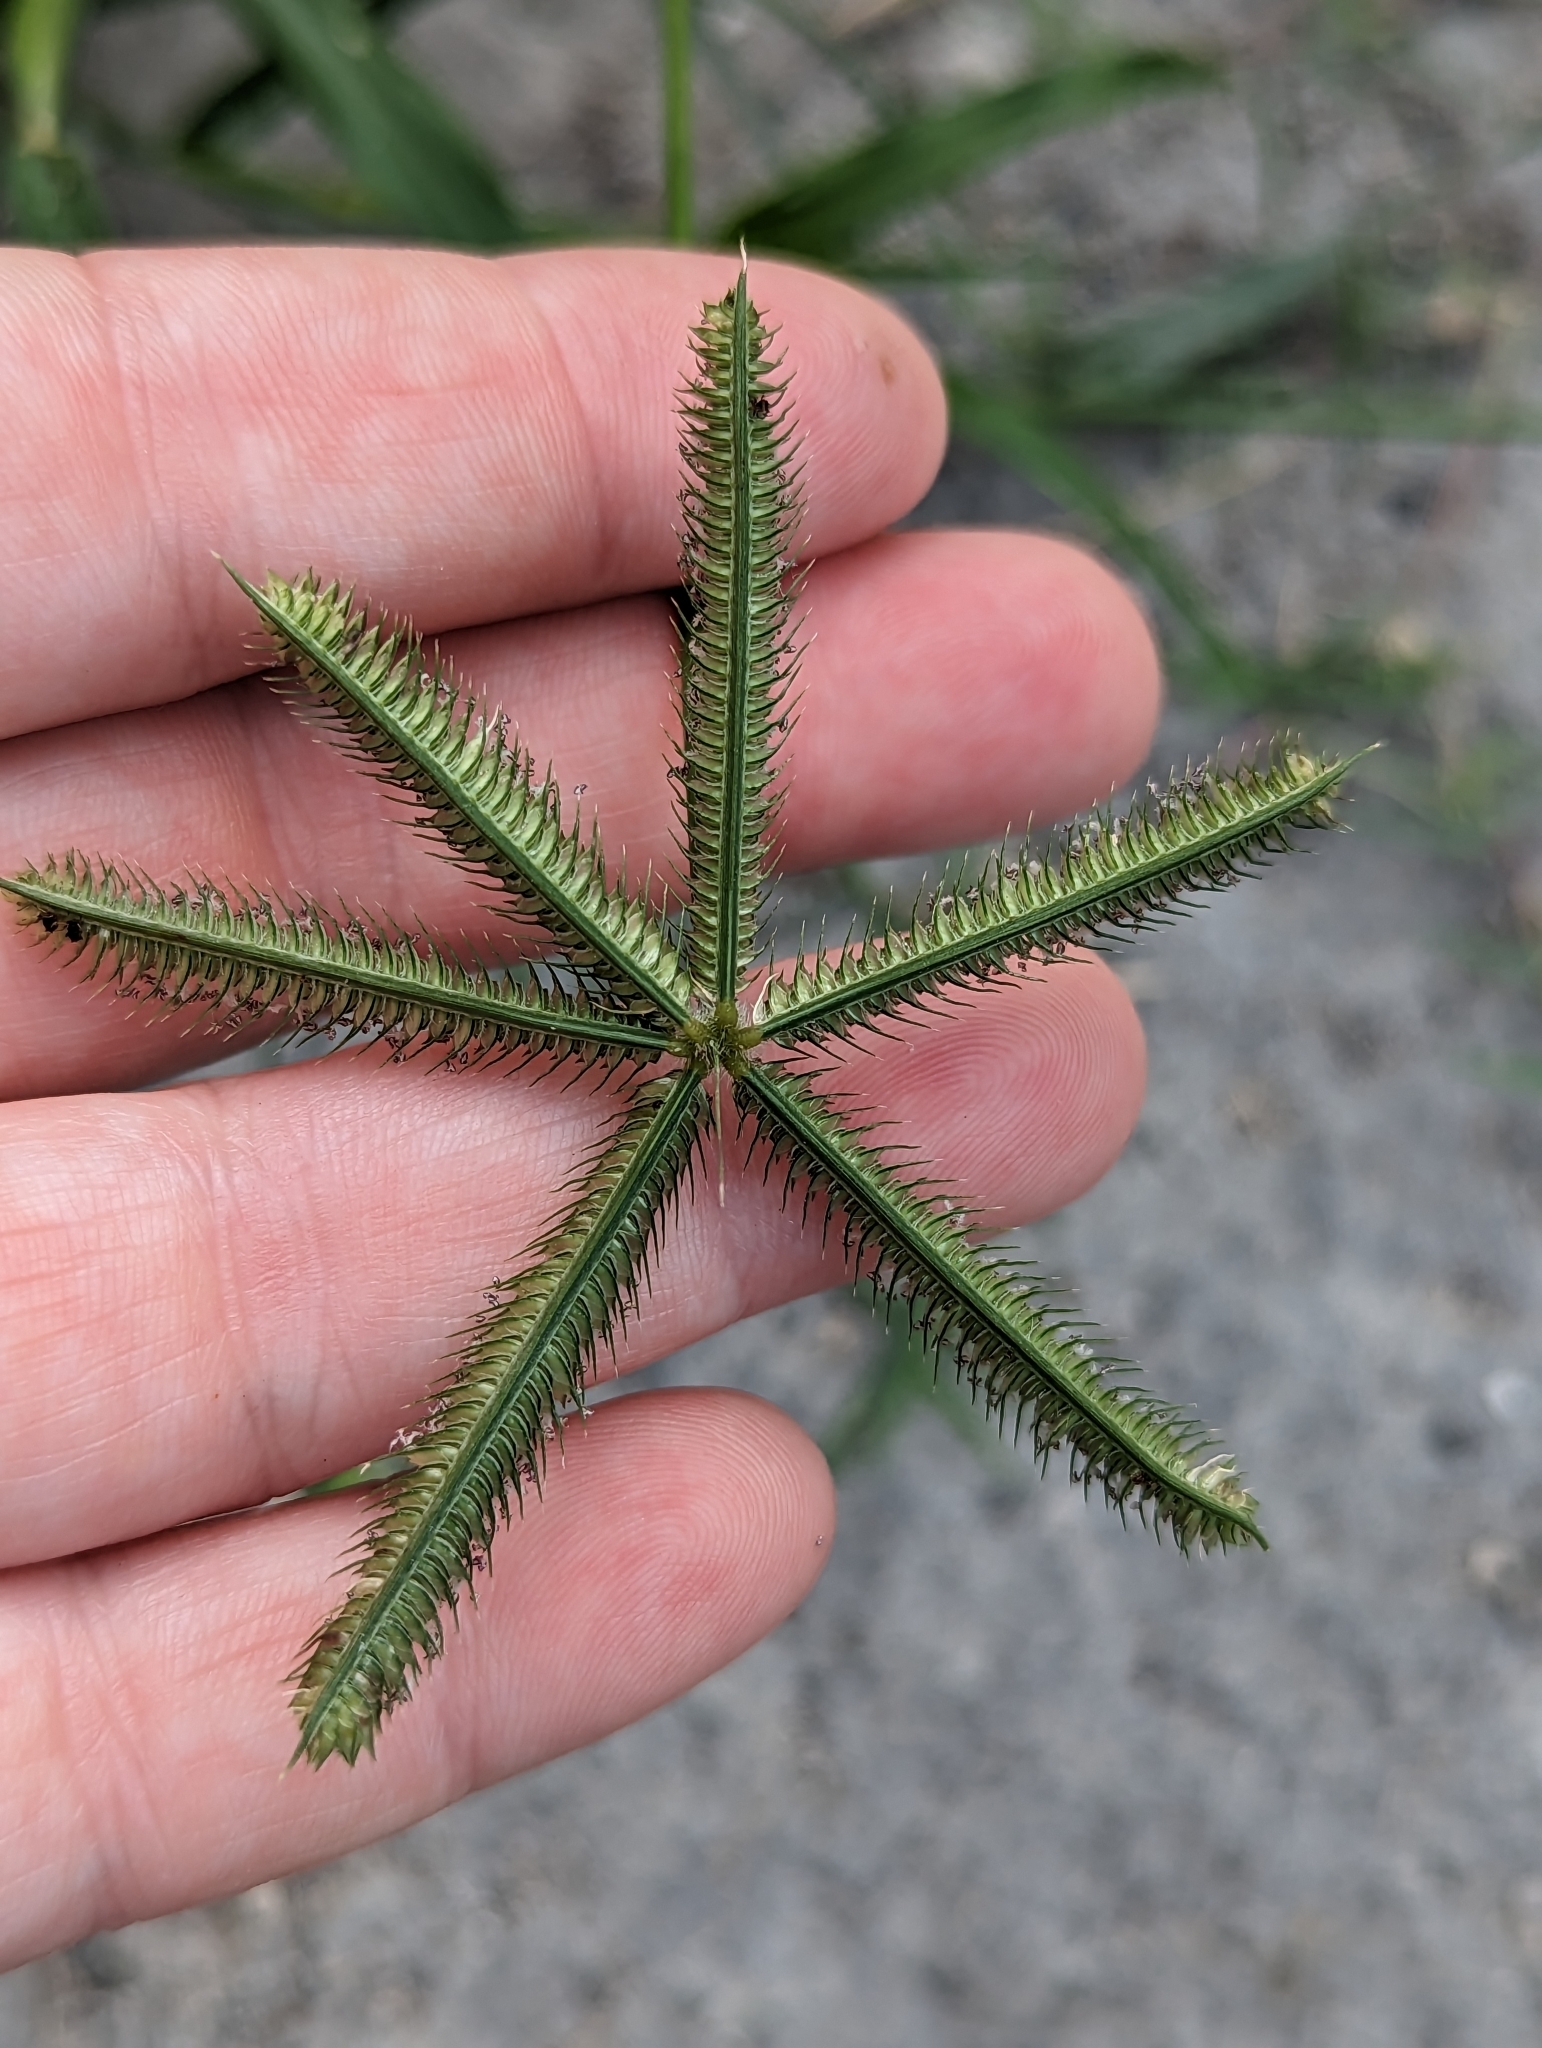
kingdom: Plantae
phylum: Tracheophyta
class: Liliopsida
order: Poales
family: Poaceae
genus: Dactyloctenium
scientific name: Dactyloctenium aegyptium
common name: Egyptian grass
